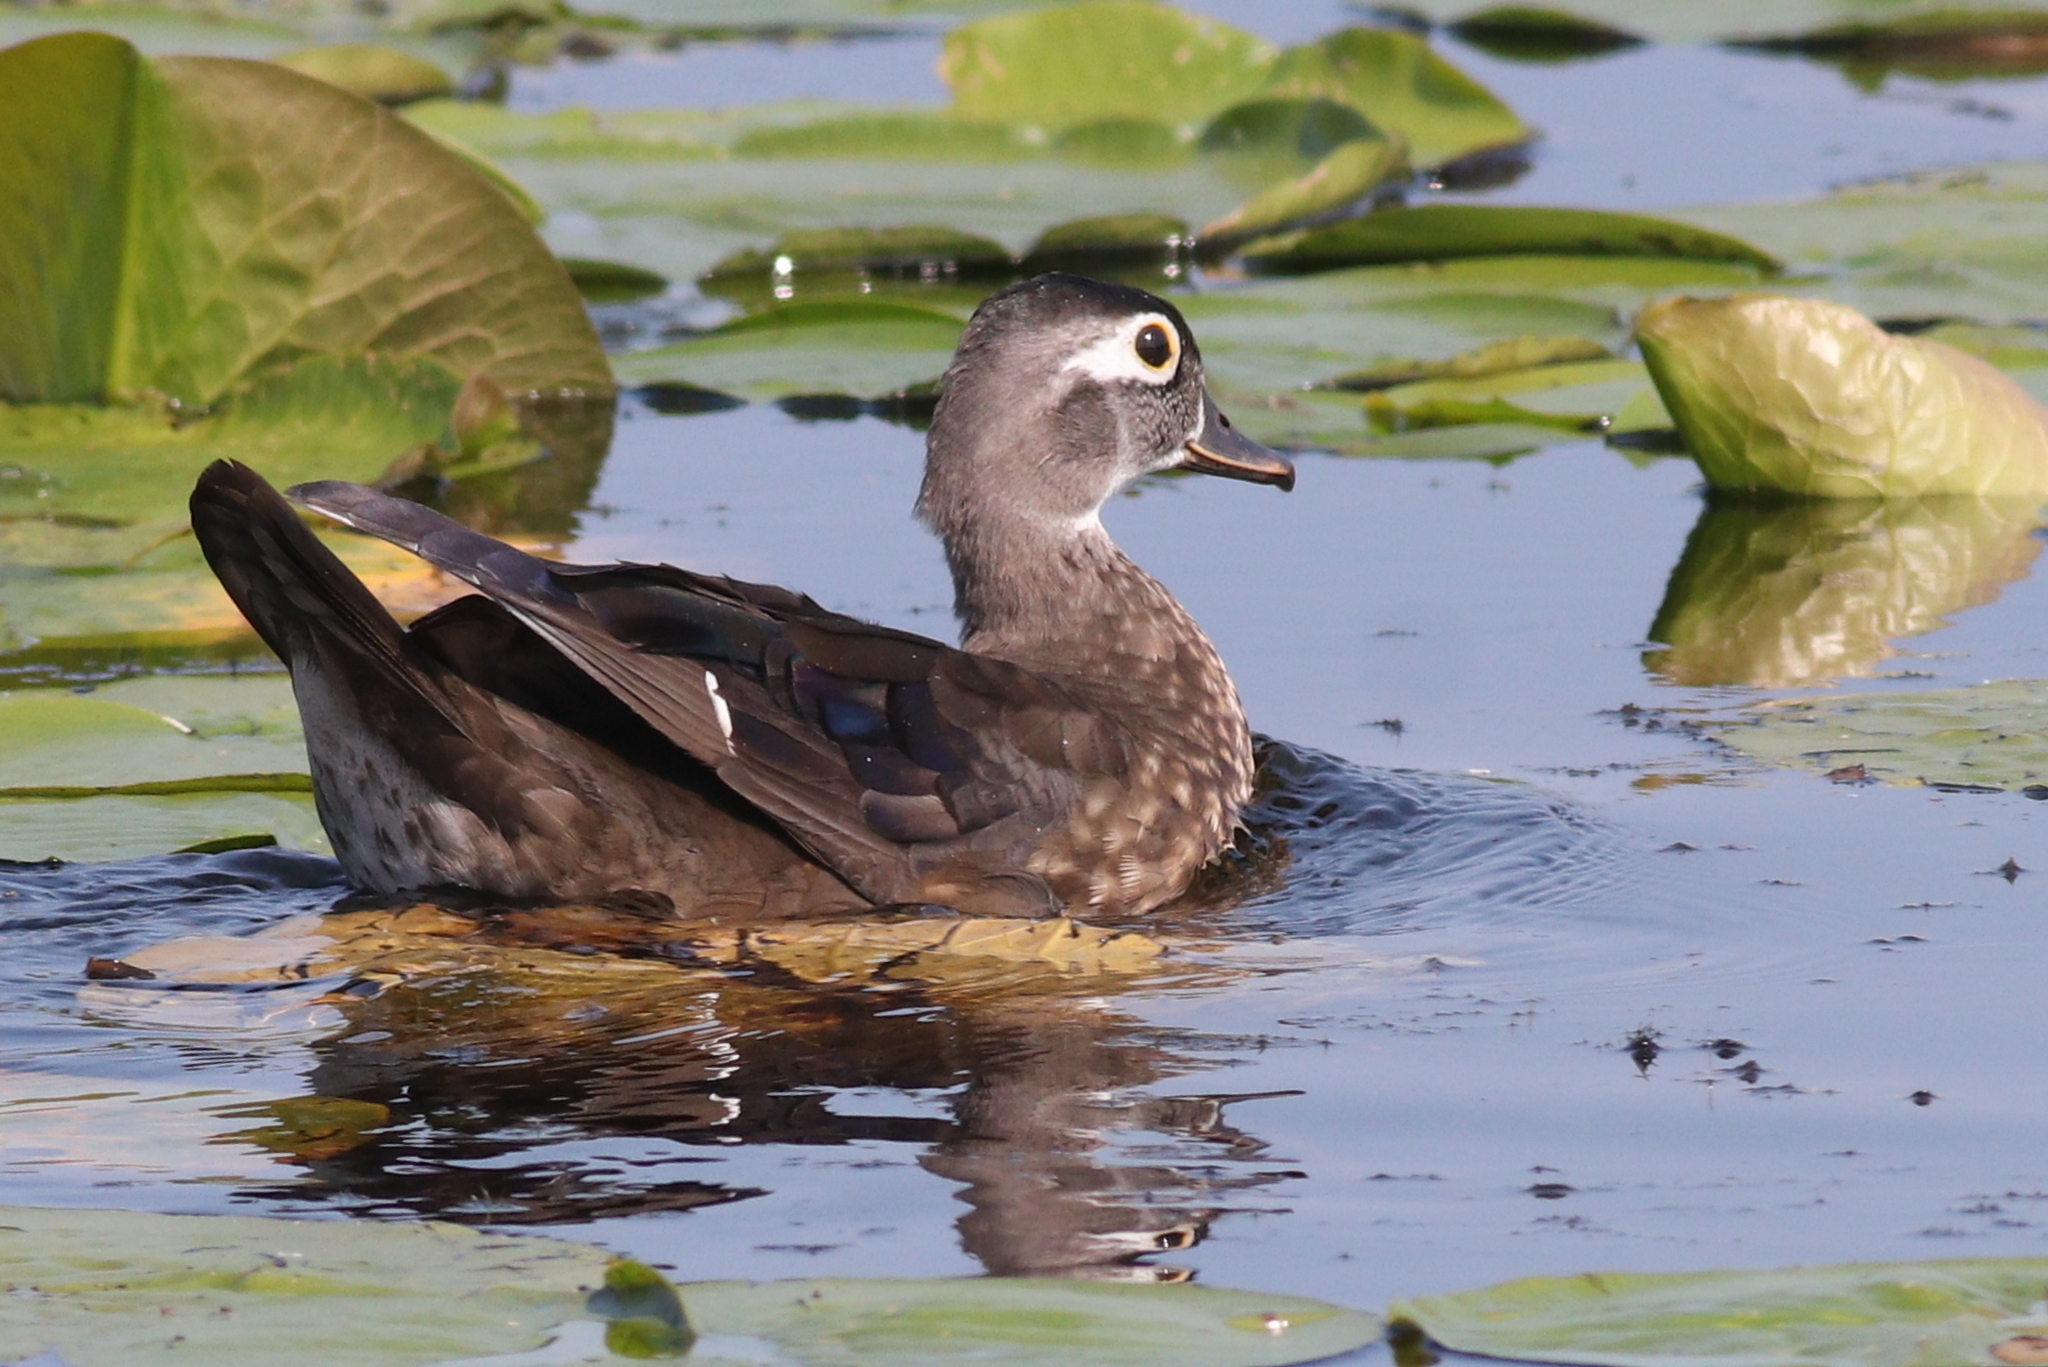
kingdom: Animalia
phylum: Chordata
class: Aves
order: Anseriformes
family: Anatidae
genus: Aix
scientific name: Aix sponsa
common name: Wood duck
